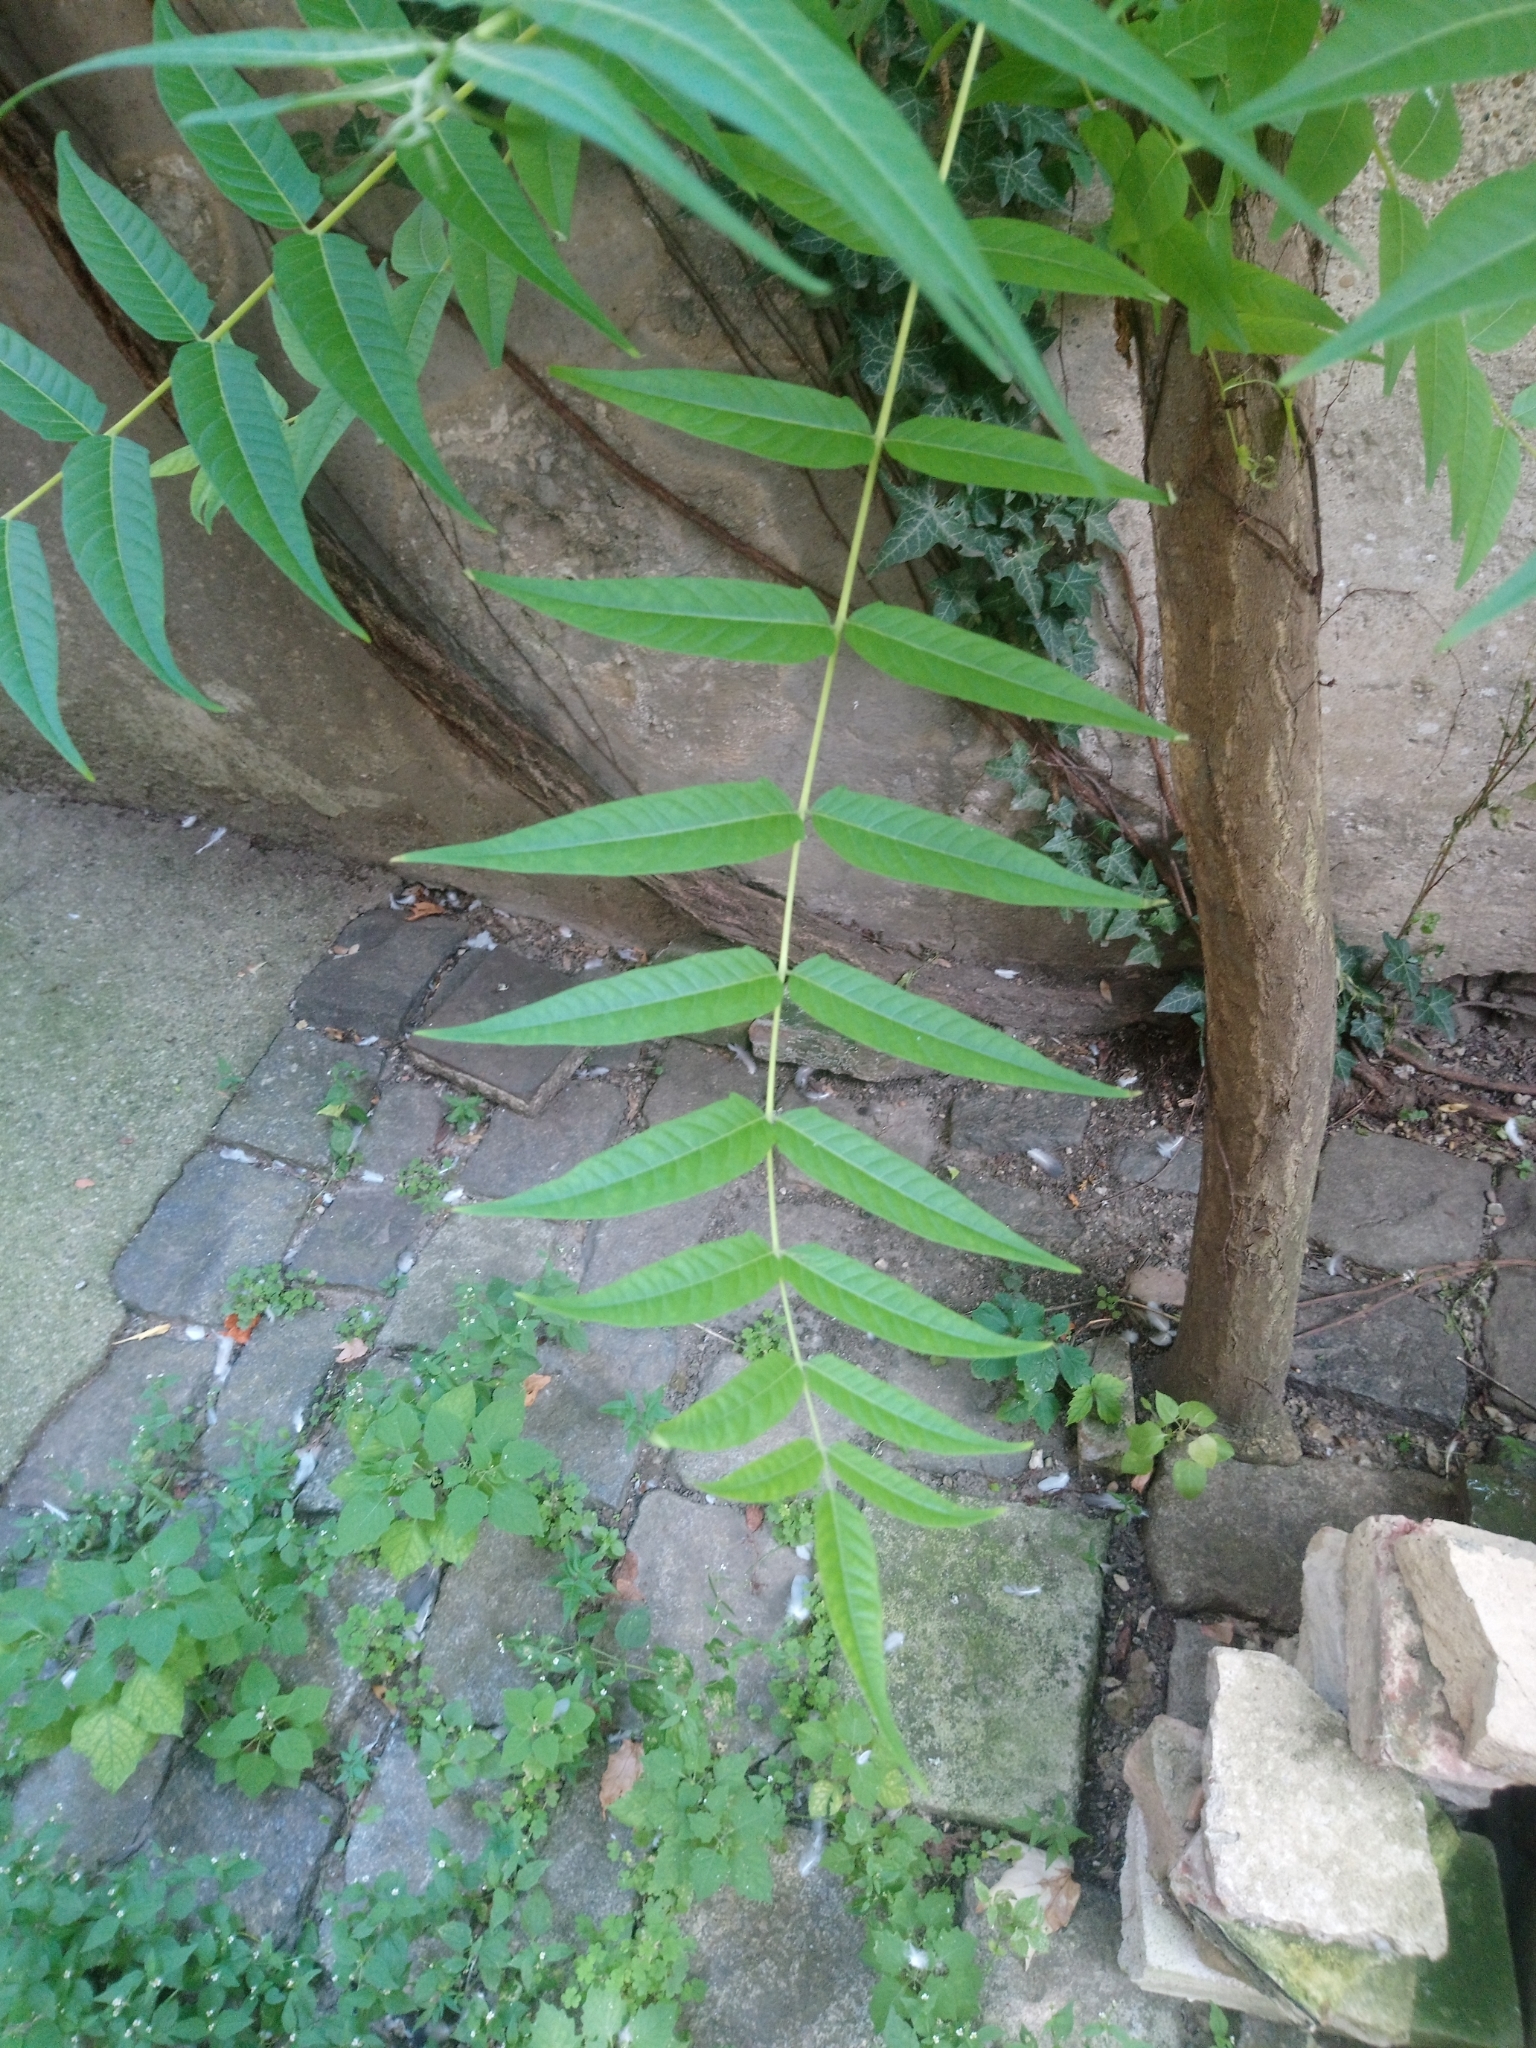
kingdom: Plantae
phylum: Tracheophyta
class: Magnoliopsida
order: Sapindales
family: Simaroubaceae
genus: Ailanthus
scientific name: Ailanthus altissima
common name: Tree-of-heaven
